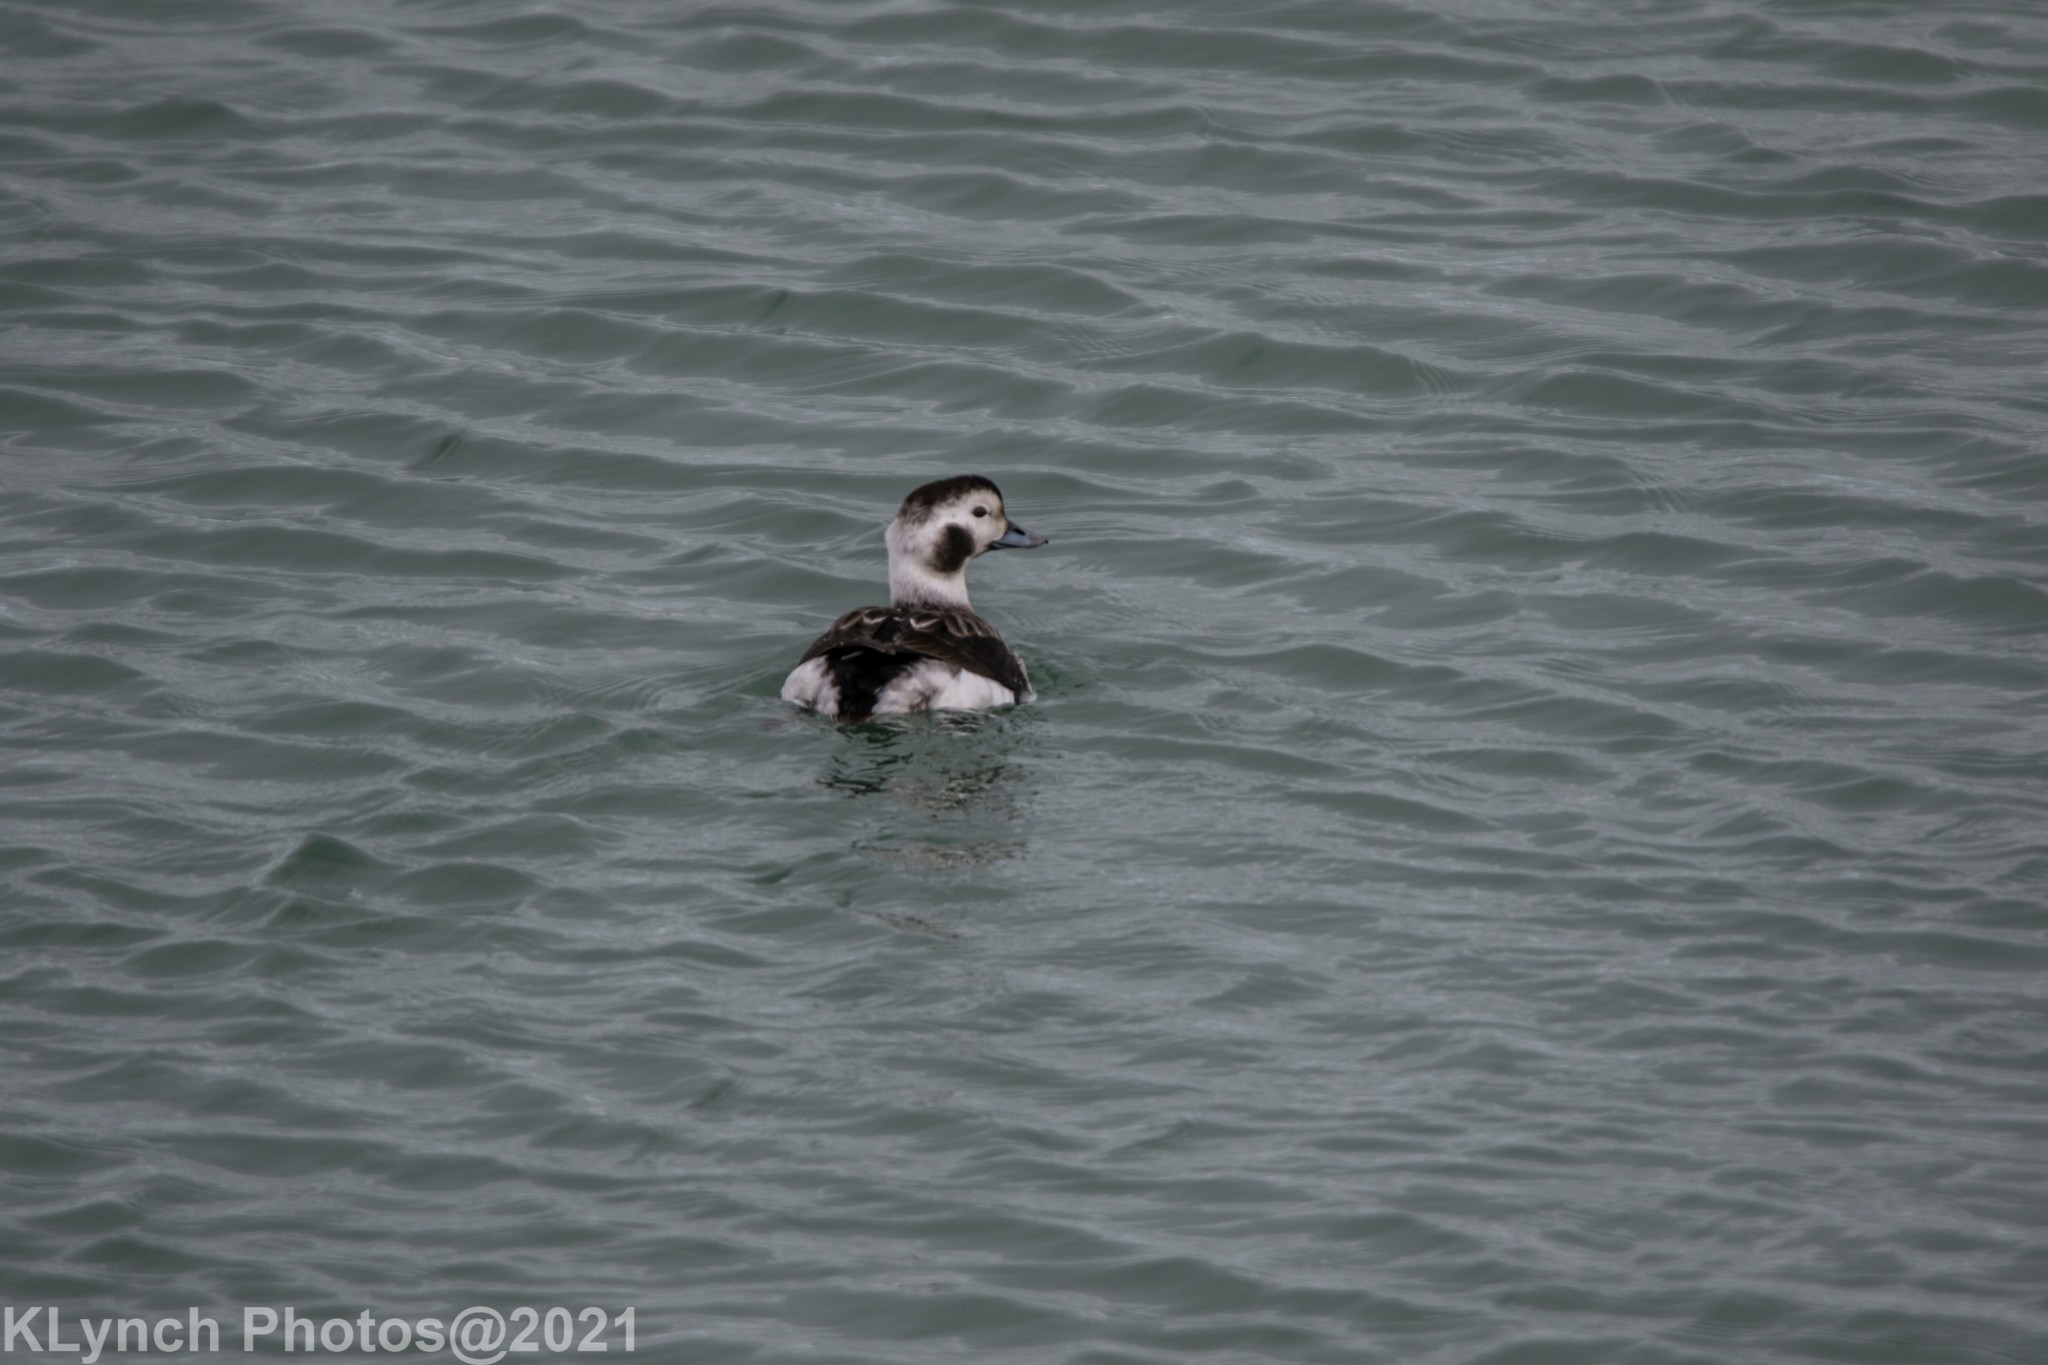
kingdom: Animalia
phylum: Chordata
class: Aves
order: Anseriformes
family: Anatidae
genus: Clangula
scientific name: Clangula hyemalis
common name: Long-tailed duck
